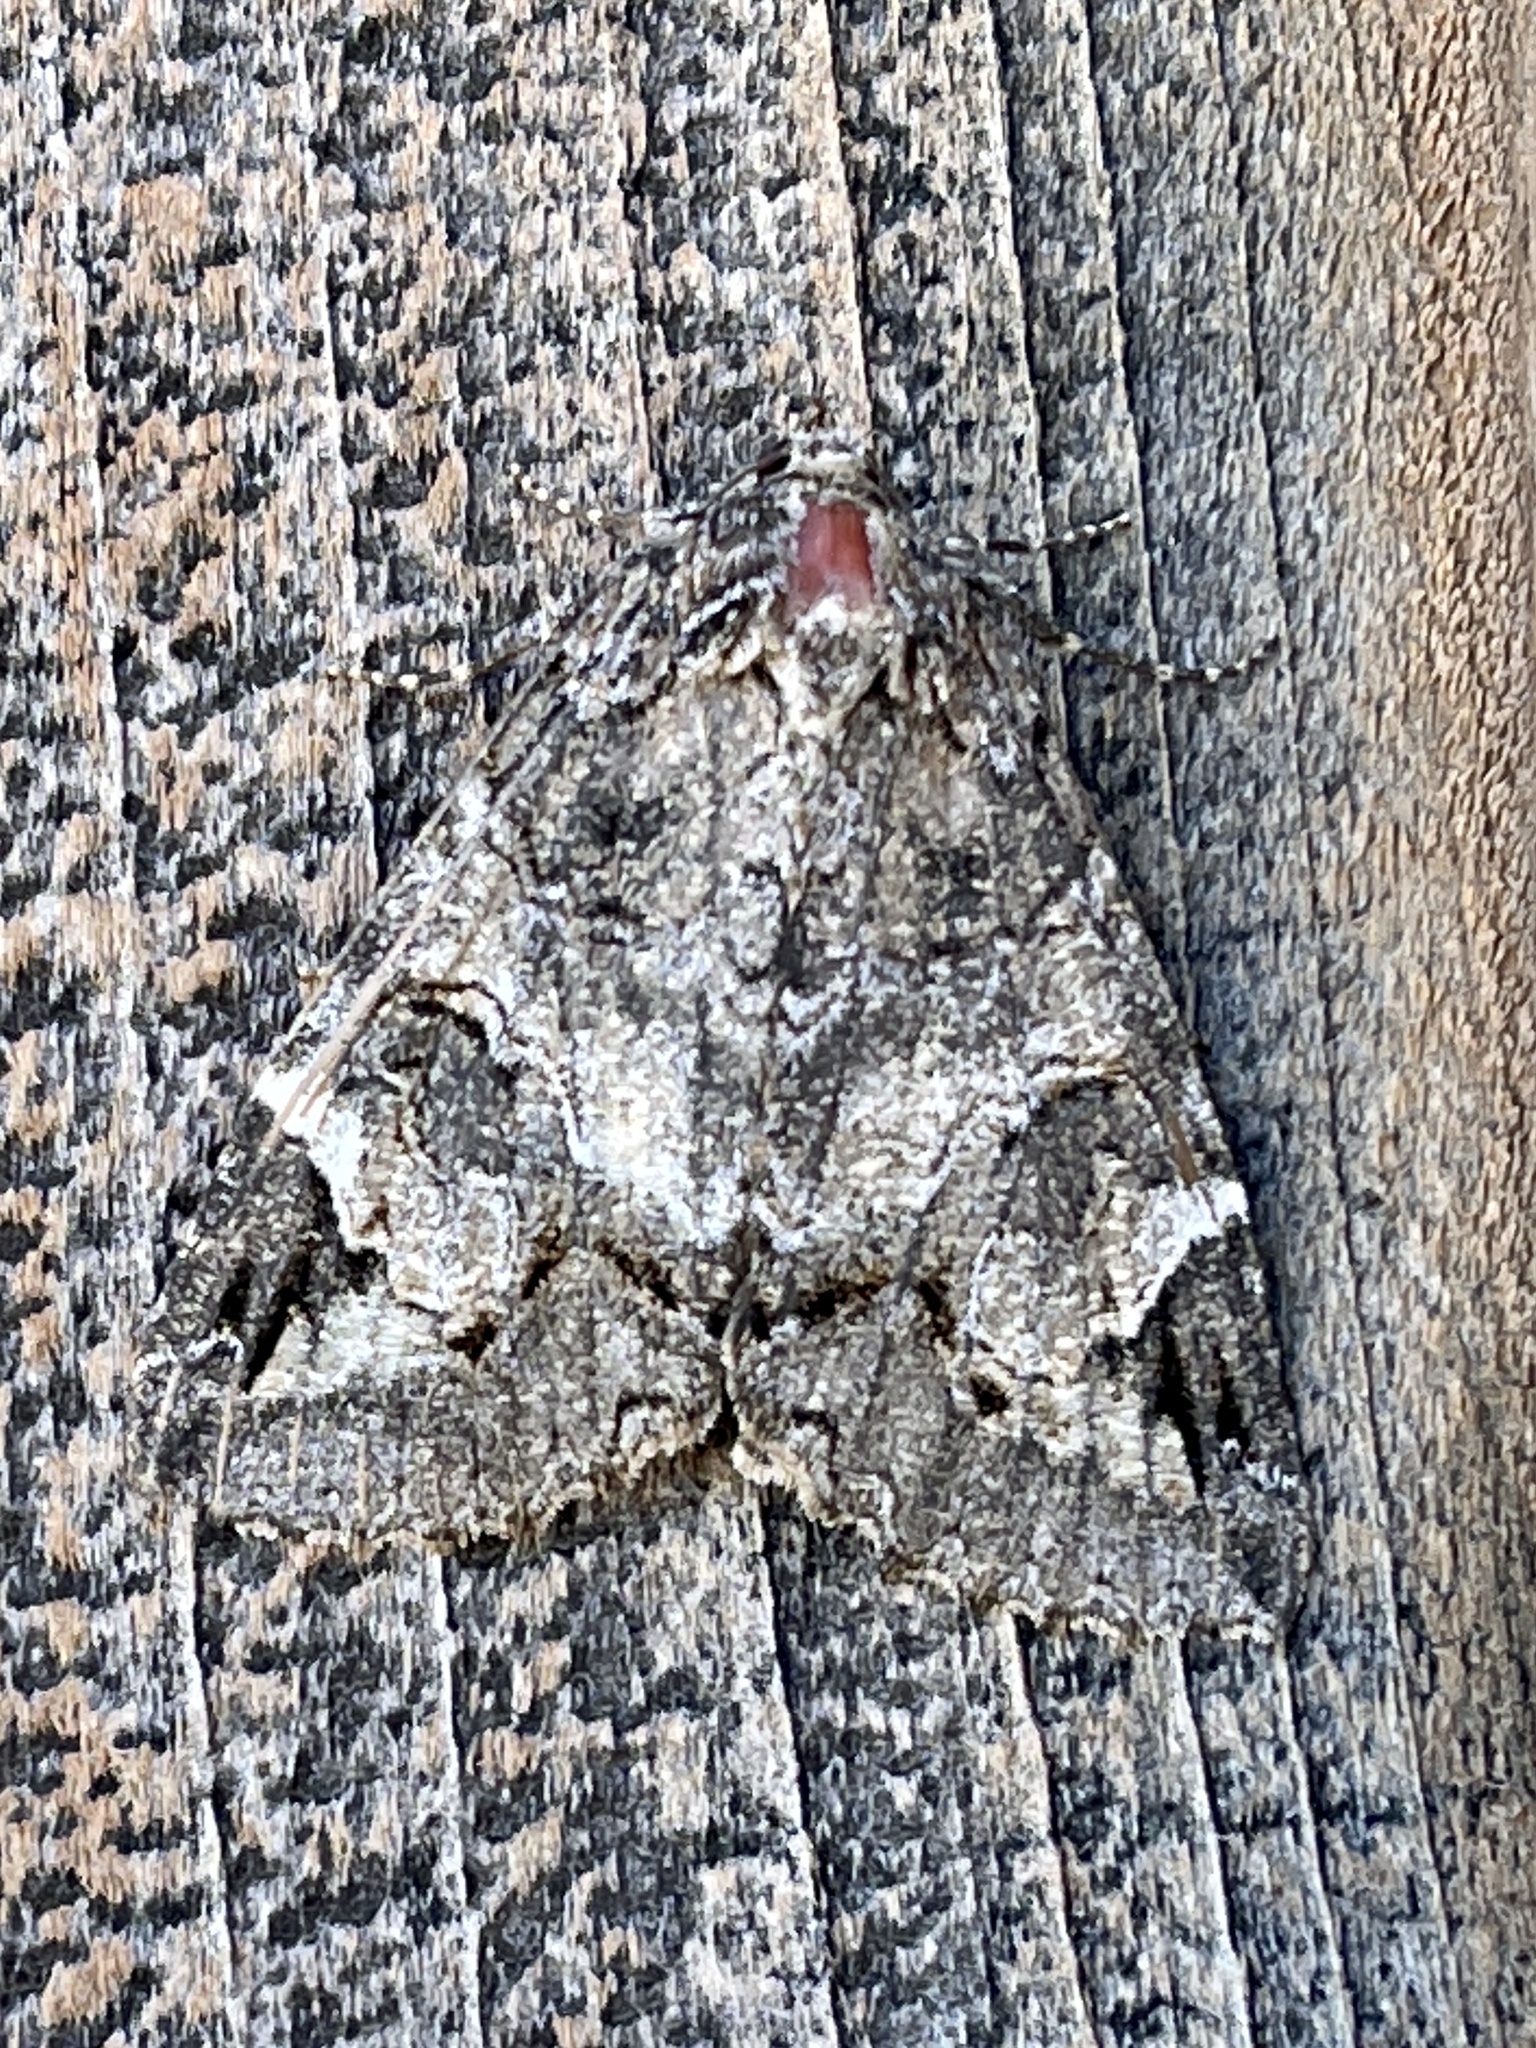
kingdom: Animalia
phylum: Arthropoda
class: Insecta
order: Lepidoptera
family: Erebidae
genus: Euparthenos
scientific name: Euparthenos nubilis
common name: Locust underwing
